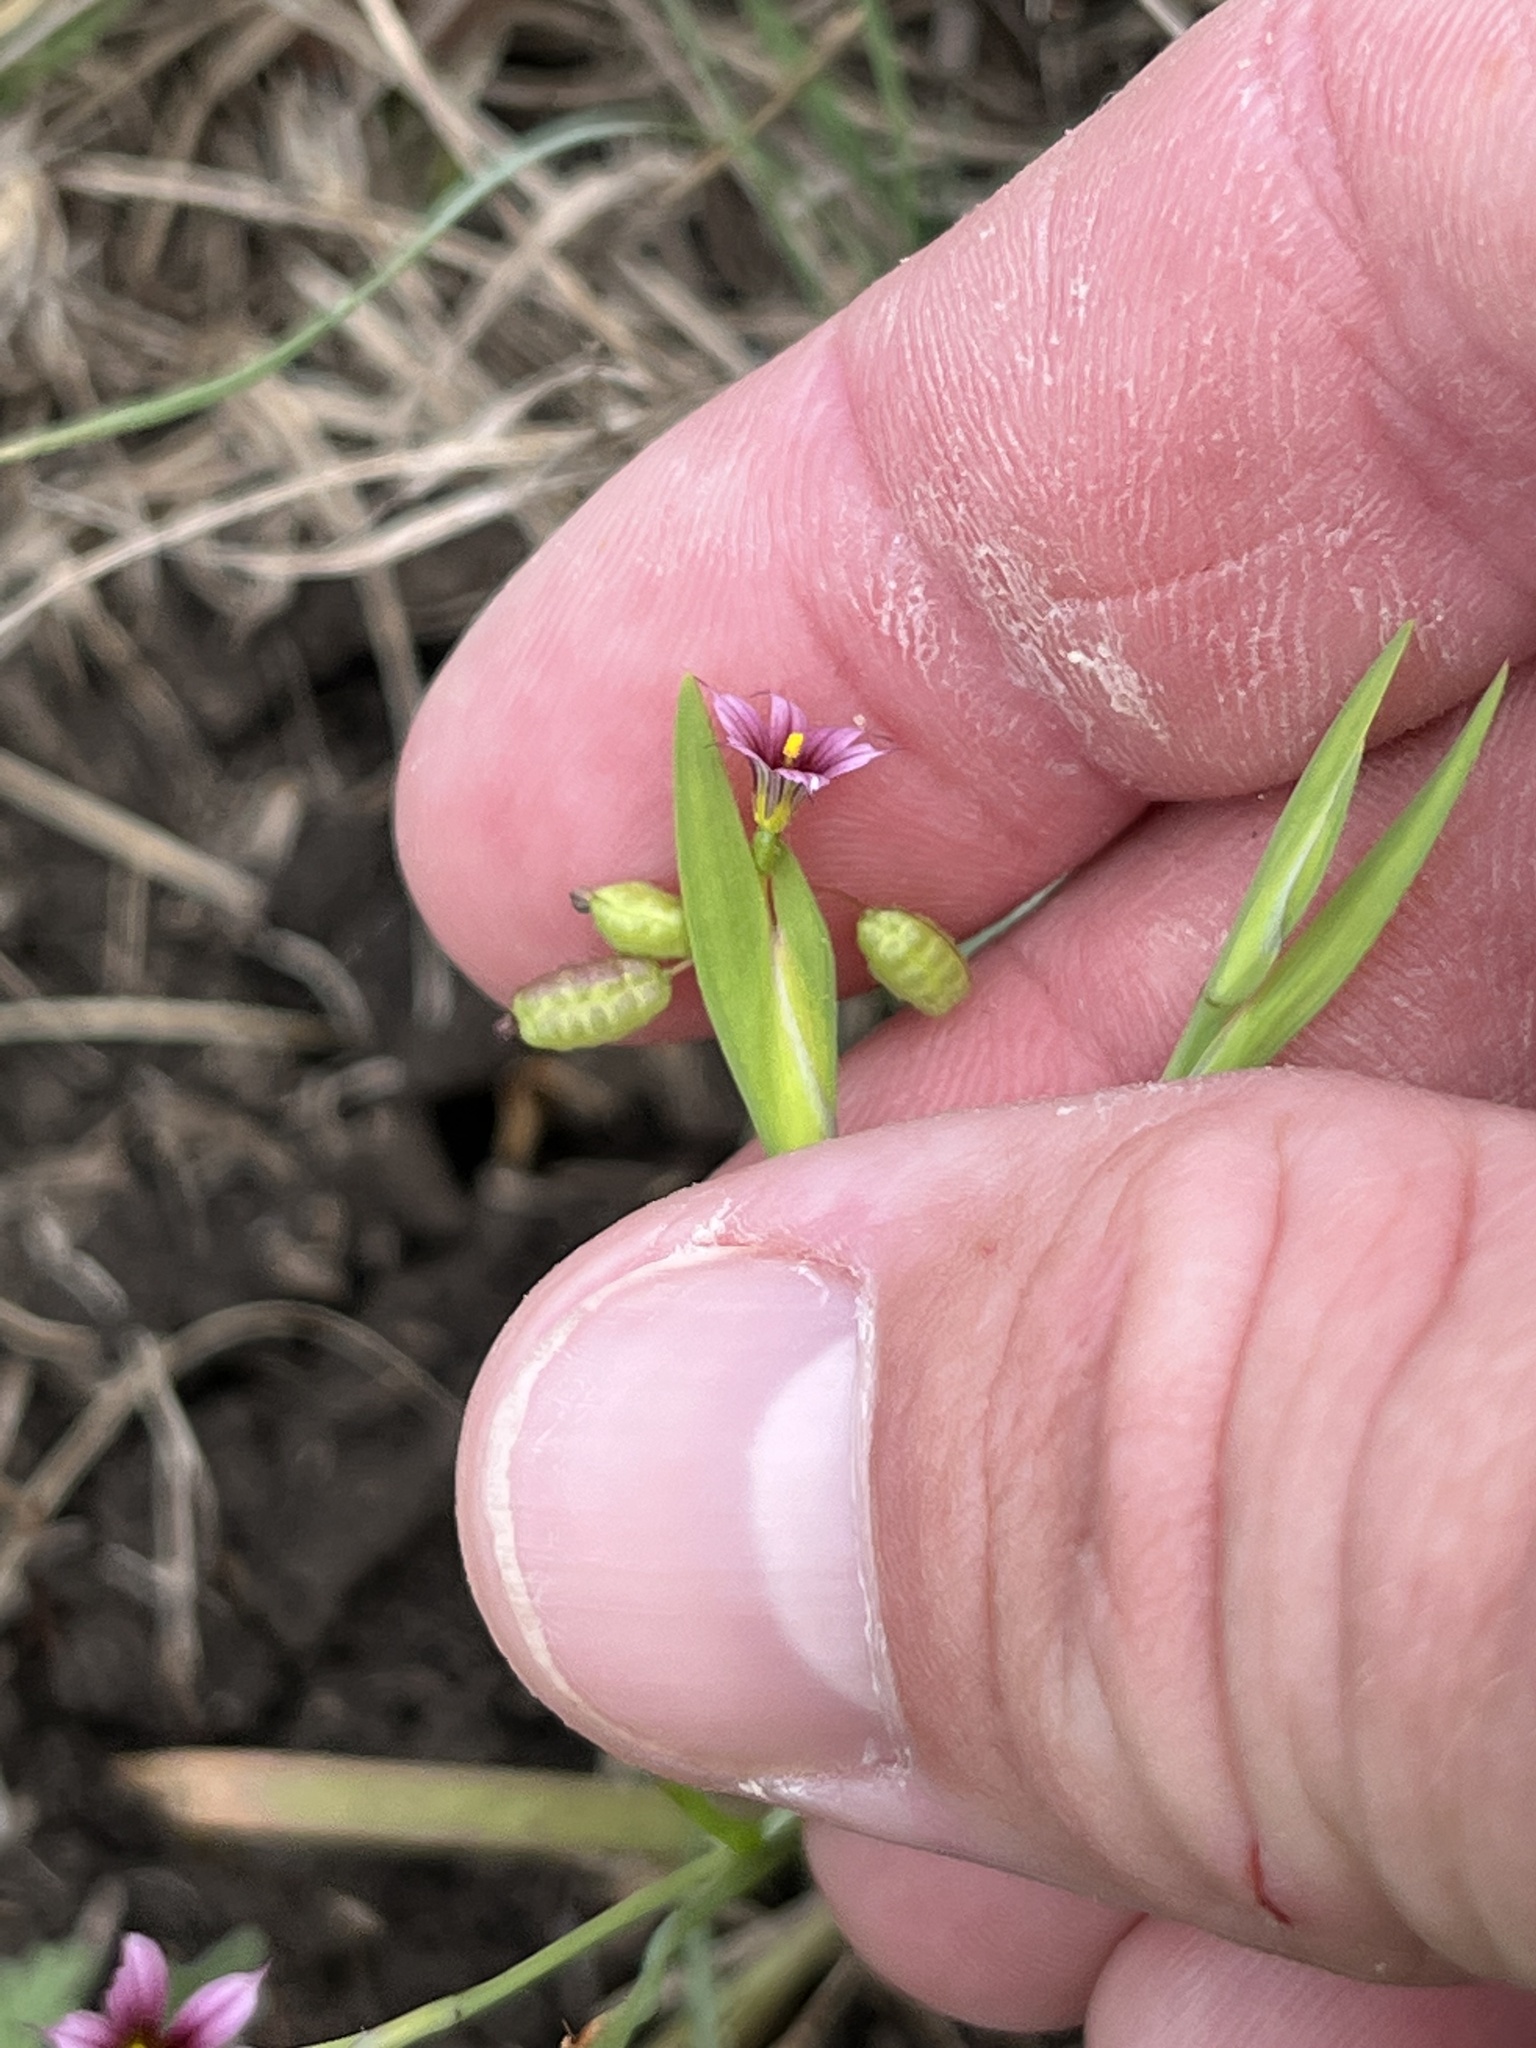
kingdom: Plantae
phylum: Tracheophyta
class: Liliopsida
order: Asparagales
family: Iridaceae
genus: Sisyrinchium
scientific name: Sisyrinchium minus
